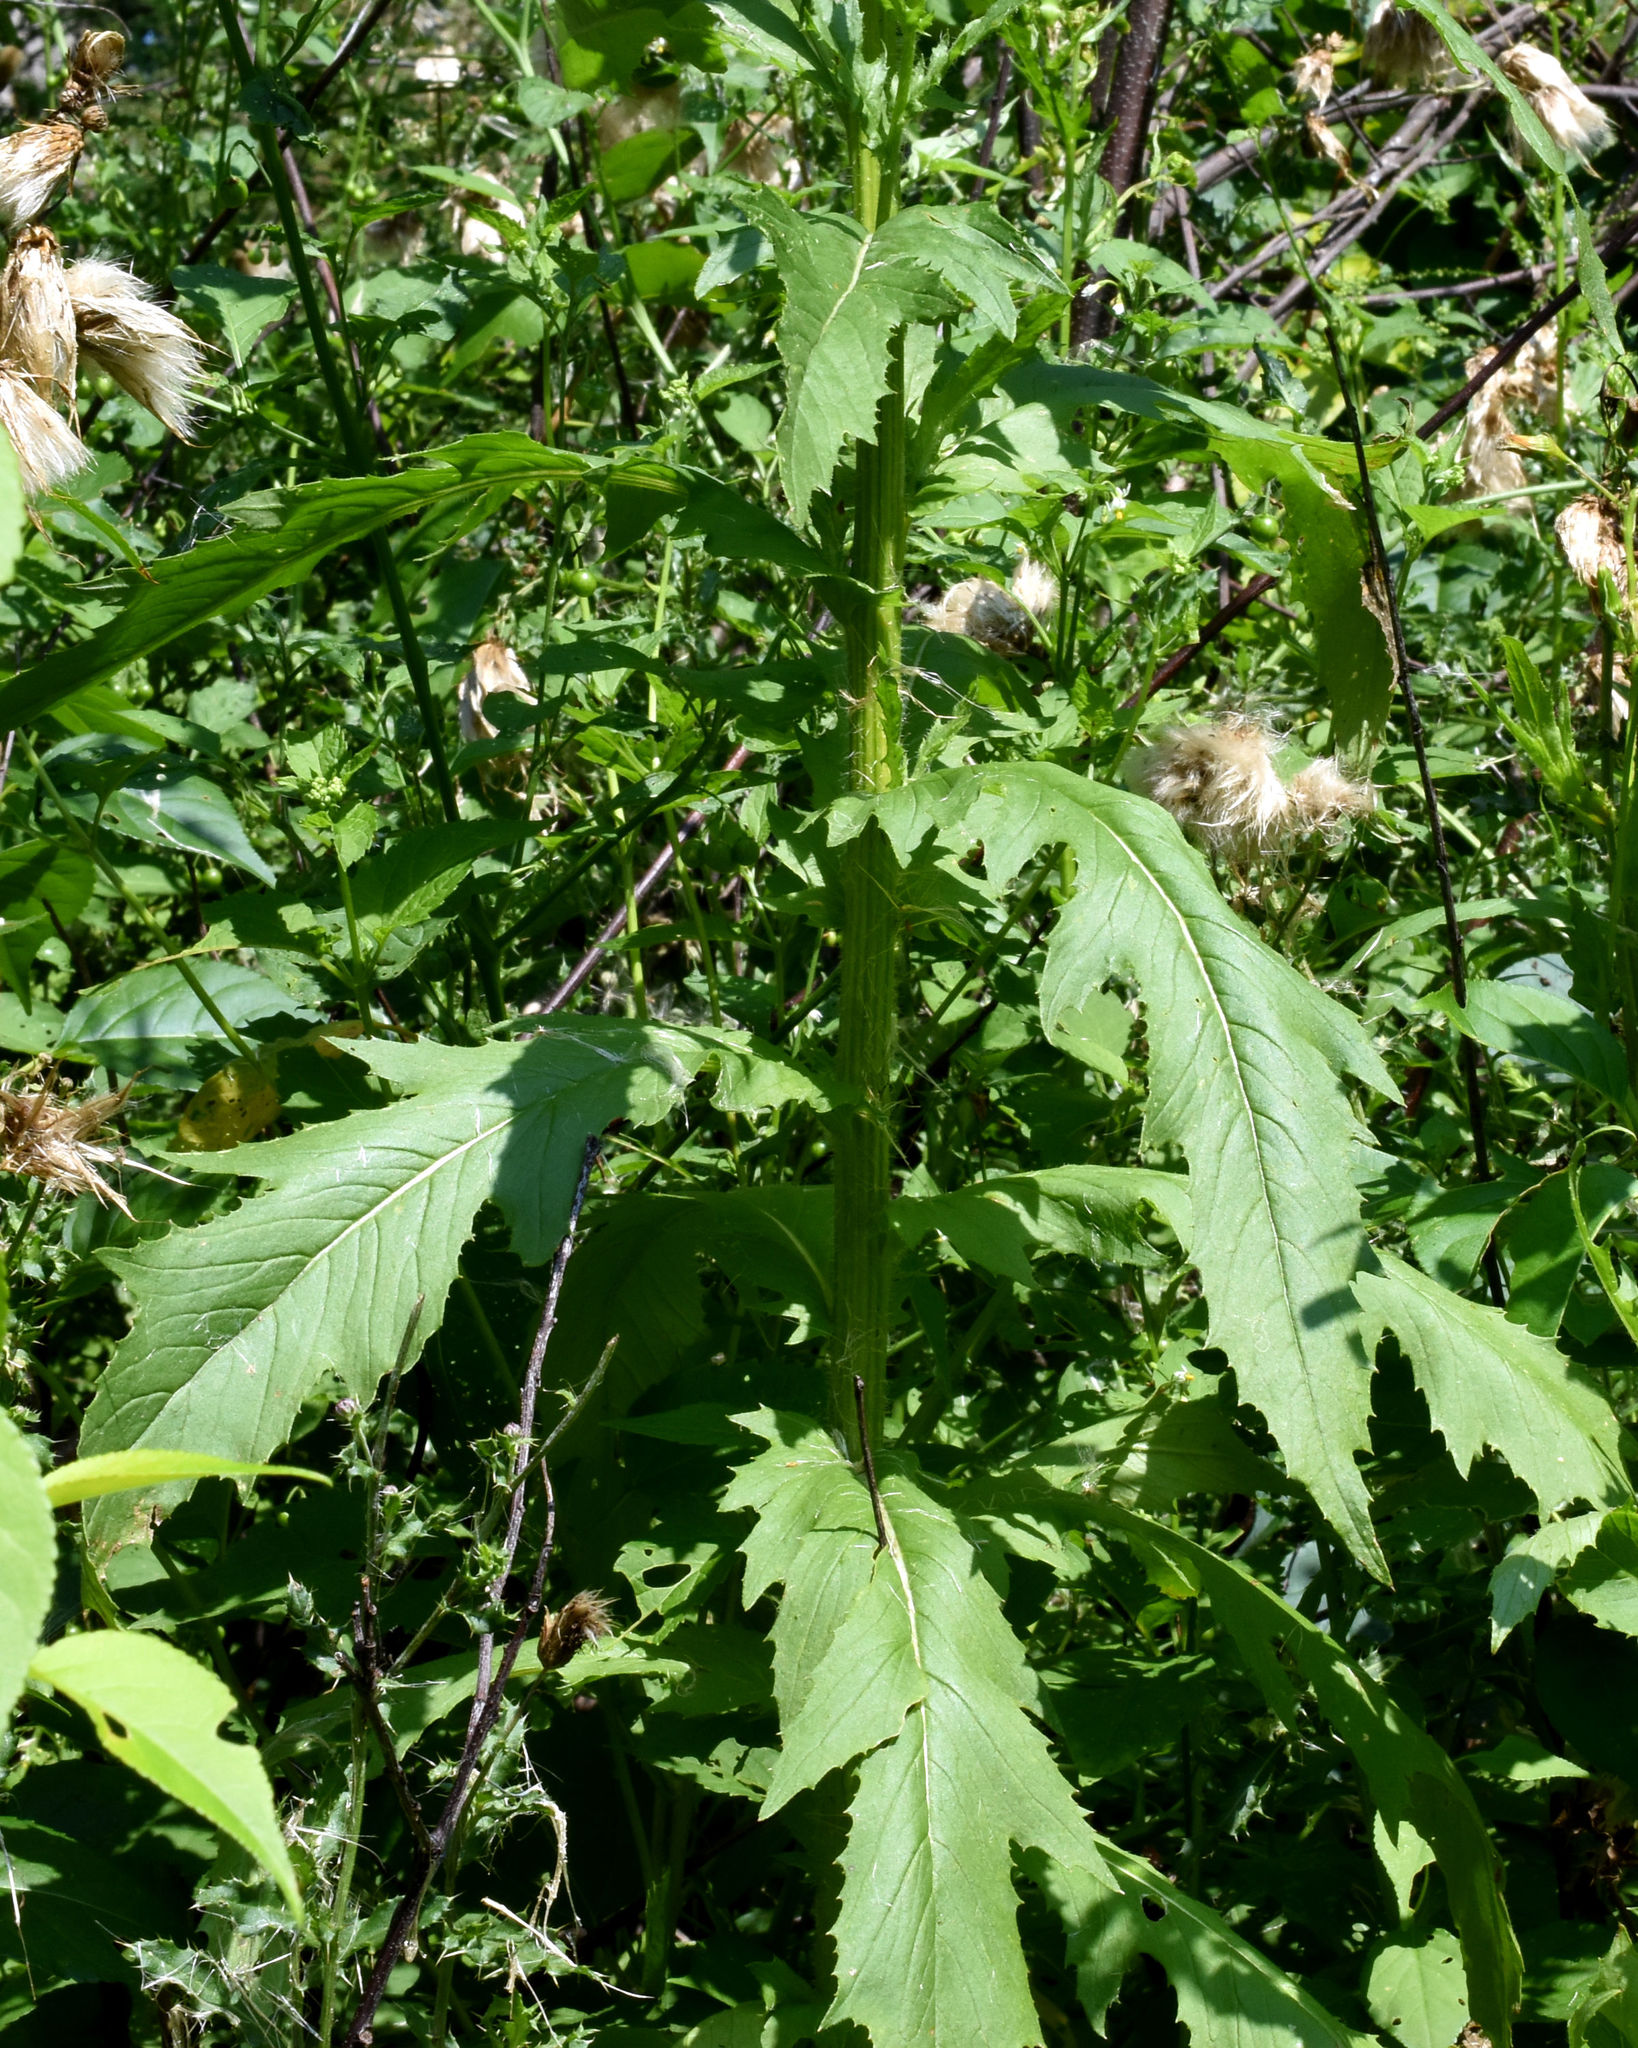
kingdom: Plantae
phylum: Tracheophyta
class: Magnoliopsida
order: Asterales
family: Asteraceae
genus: Erechtites
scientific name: Erechtites hieraciifolius
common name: American burnweed
